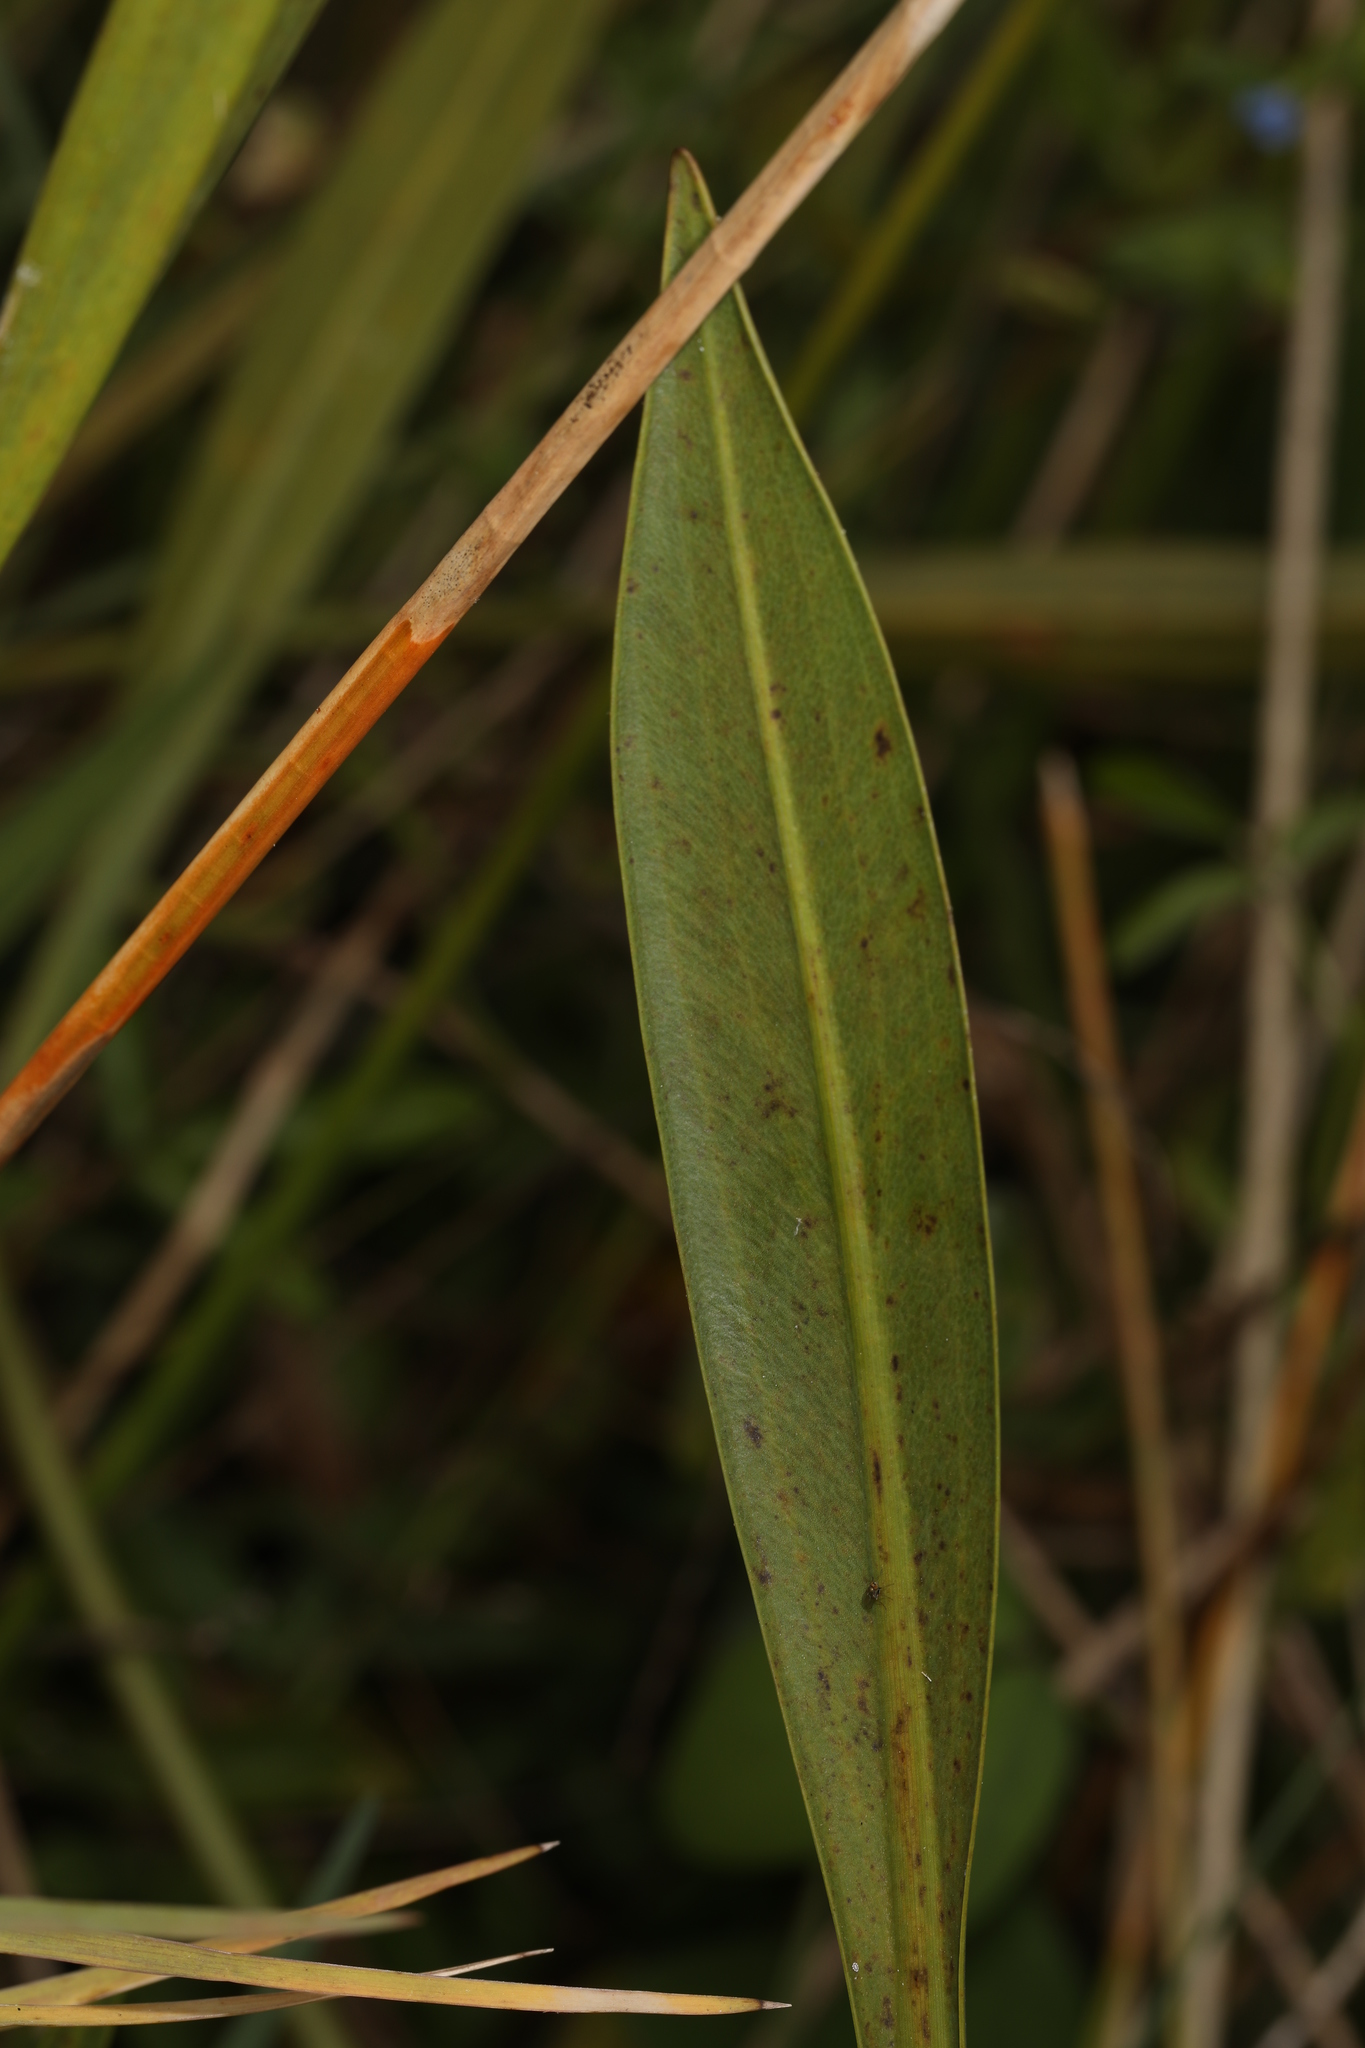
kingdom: Plantae
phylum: Tracheophyta
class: Liliopsida
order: Alismatales
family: Alismataceae
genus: Sagittaria
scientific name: Sagittaria lancifolia
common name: Lance-leaf arrowhead
